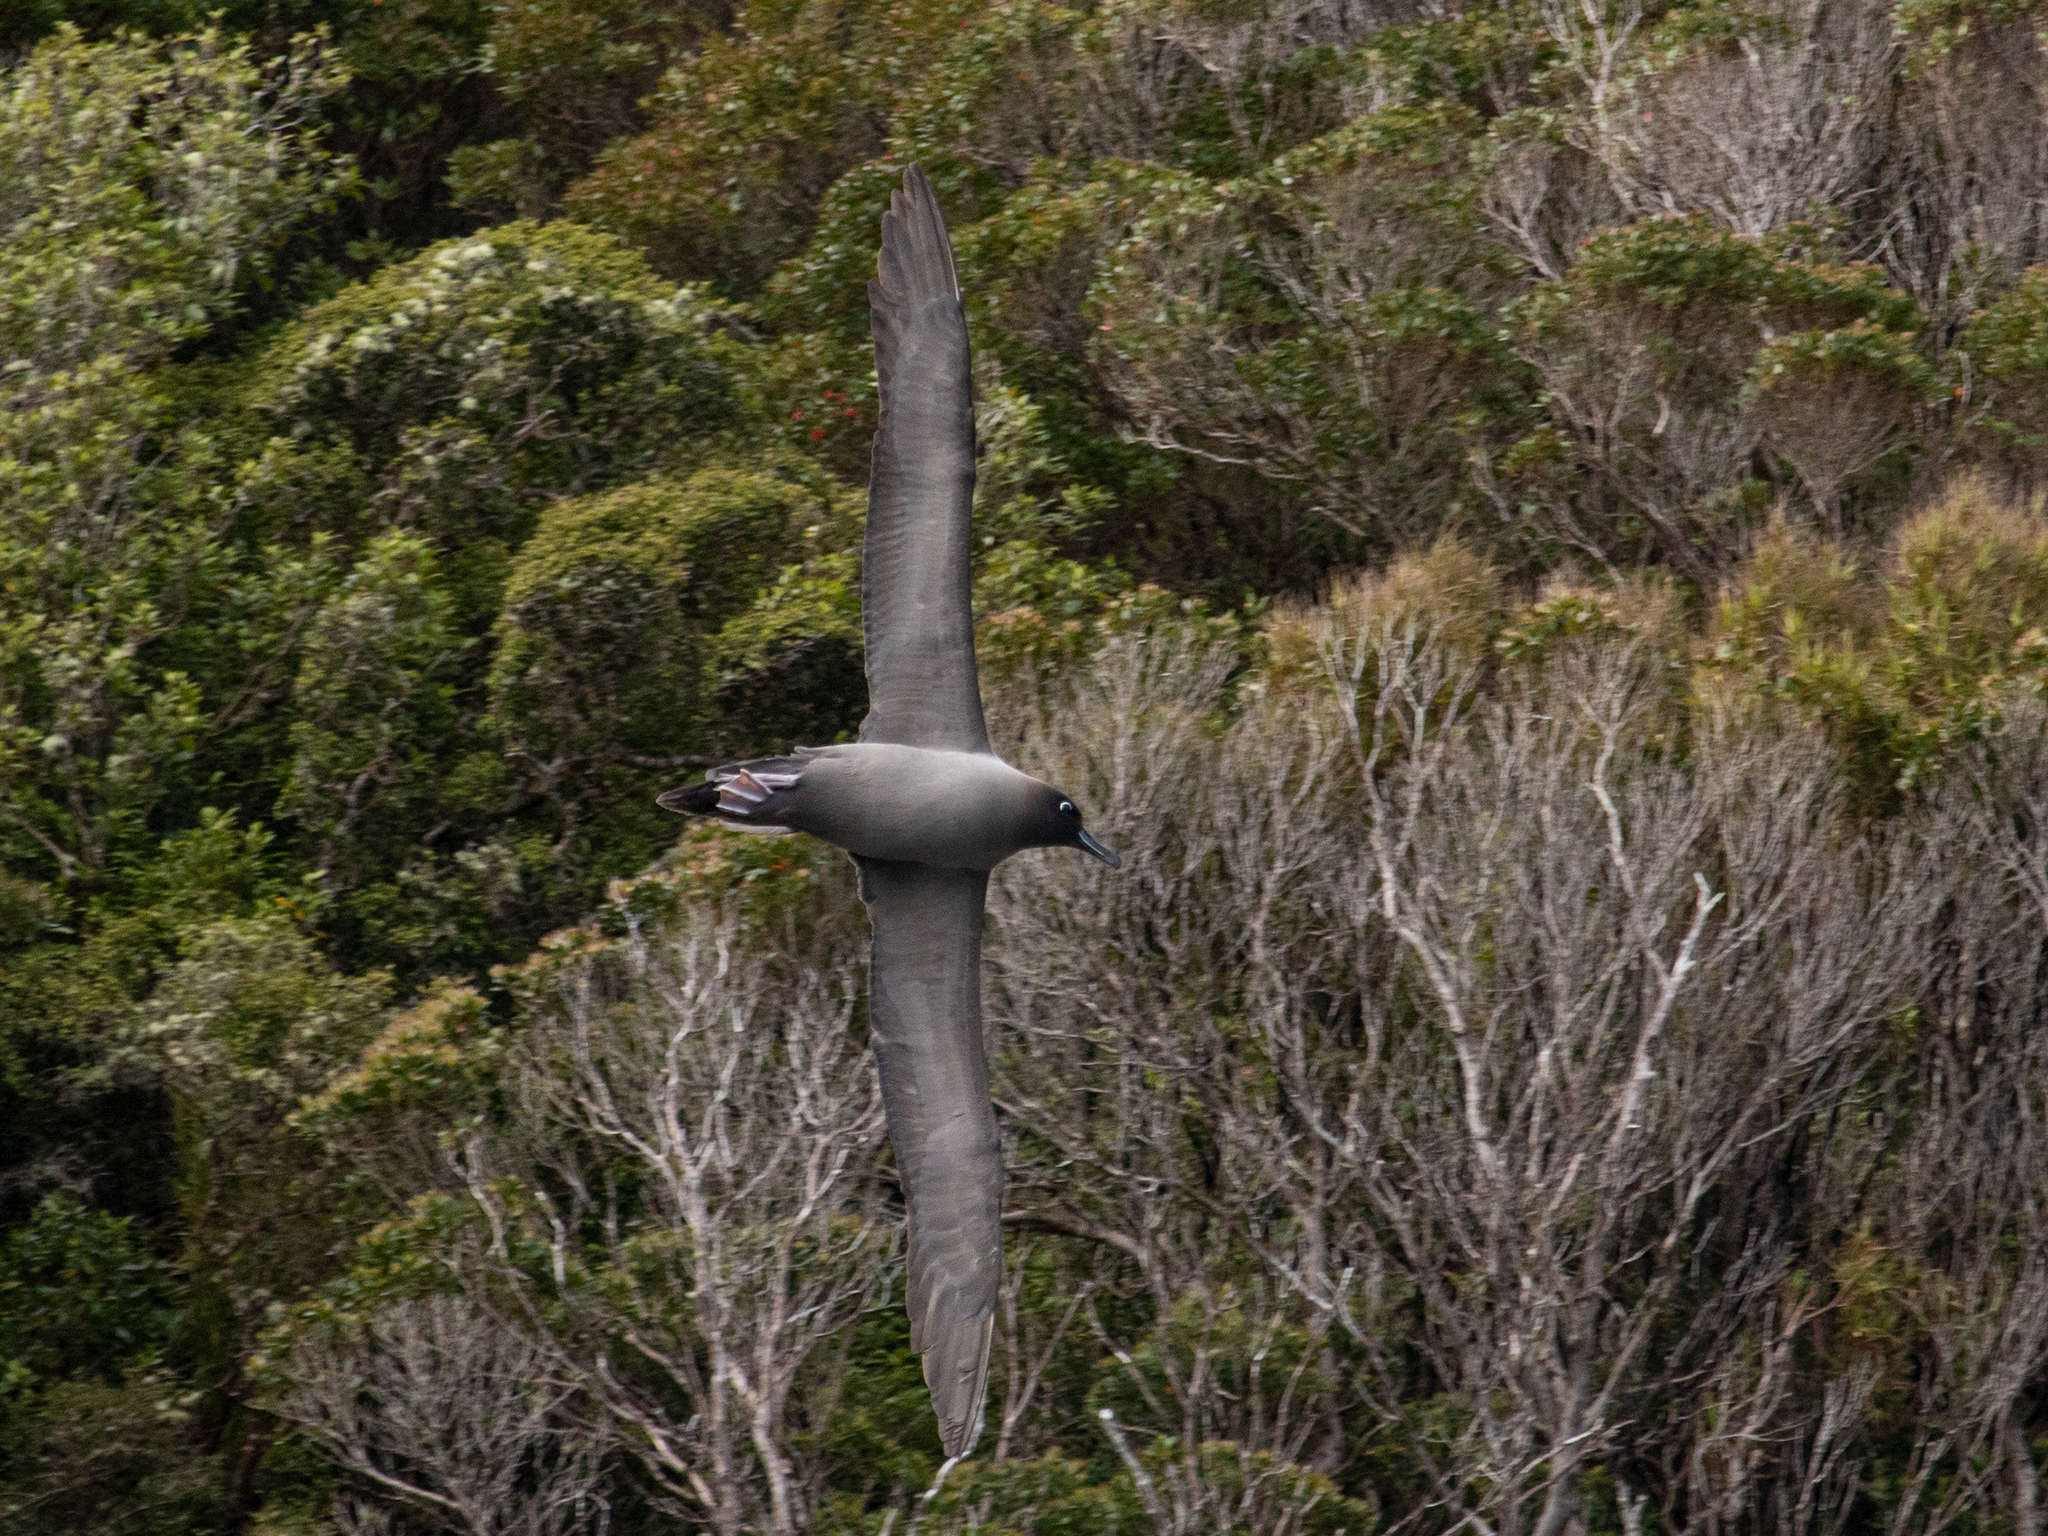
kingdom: Animalia
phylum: Chordata
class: Aves
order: Procellariiformes
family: Diomedeidae
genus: Phoebetria
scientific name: Phoebetria palpebrata
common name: Light-mantled albatross
